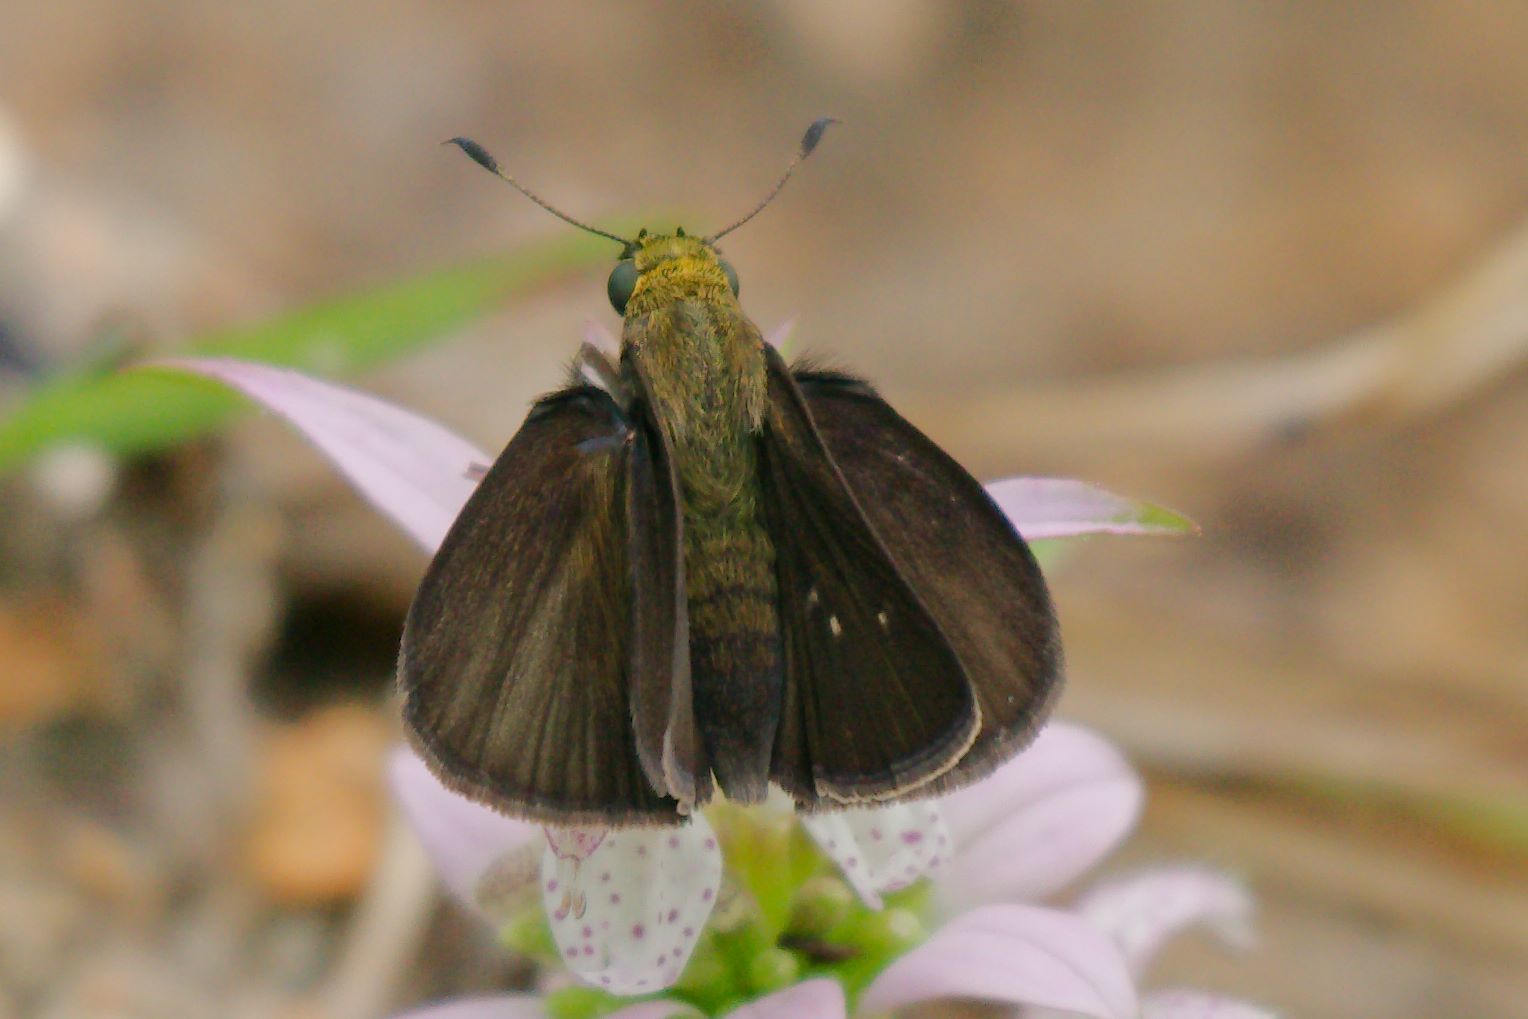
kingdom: Animalia
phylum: Arthropoda
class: Insecta
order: Lepidoptera
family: Hesperiidae
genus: Euphyes
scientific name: Euphyes vestris
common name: Dun skipper
